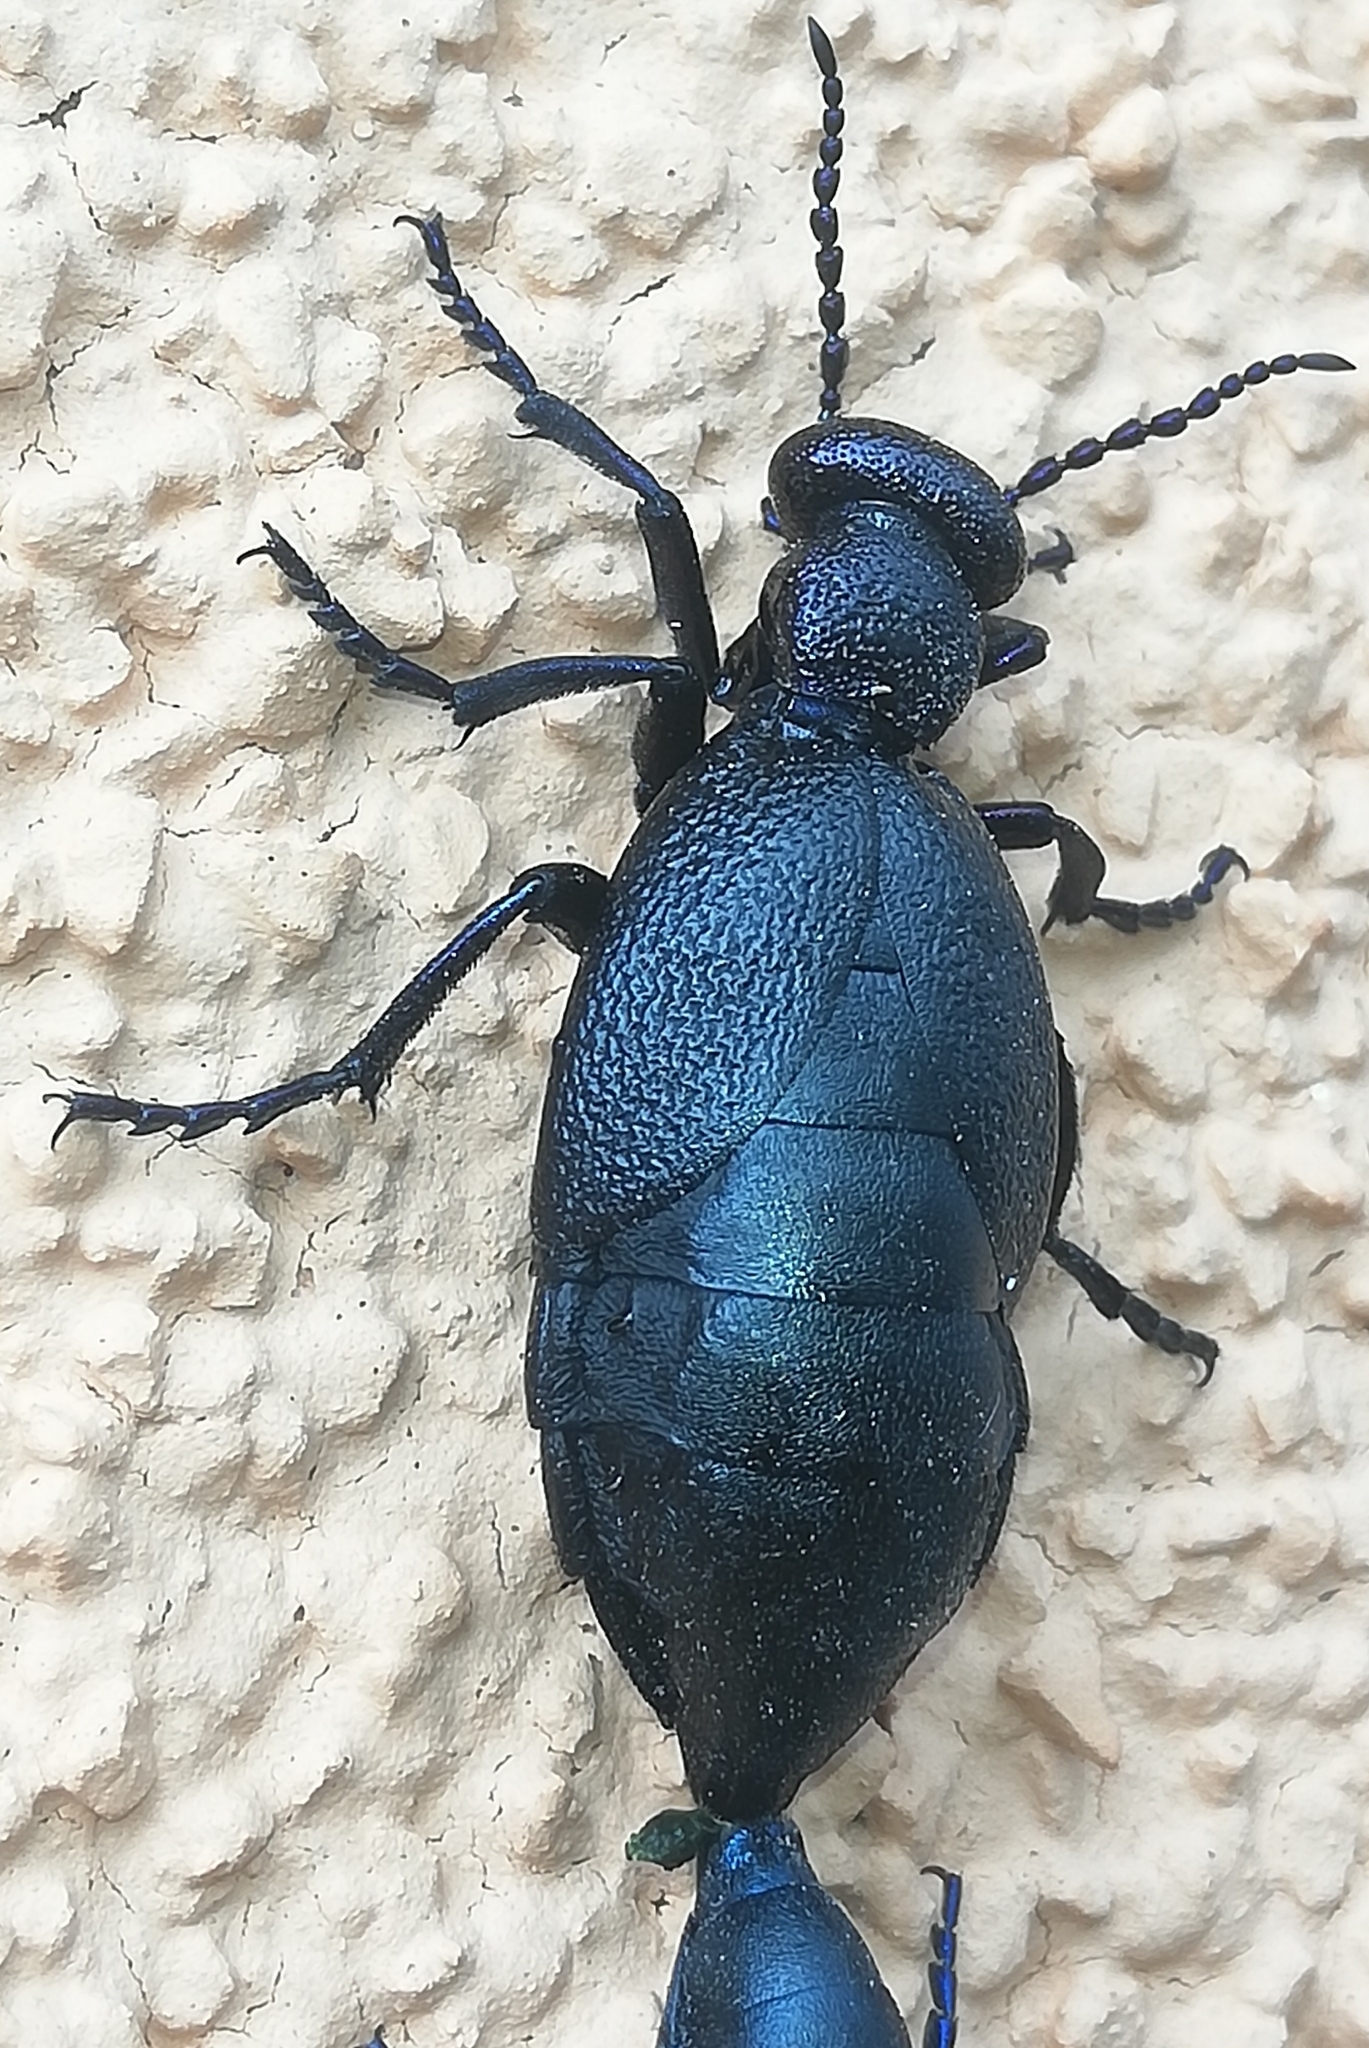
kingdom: Animalia
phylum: Arthropoda
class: Insecta
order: Coleoptera
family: Meloidae
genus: Meloe
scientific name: Meloe proscarabaeus
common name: Black oil-beetle
